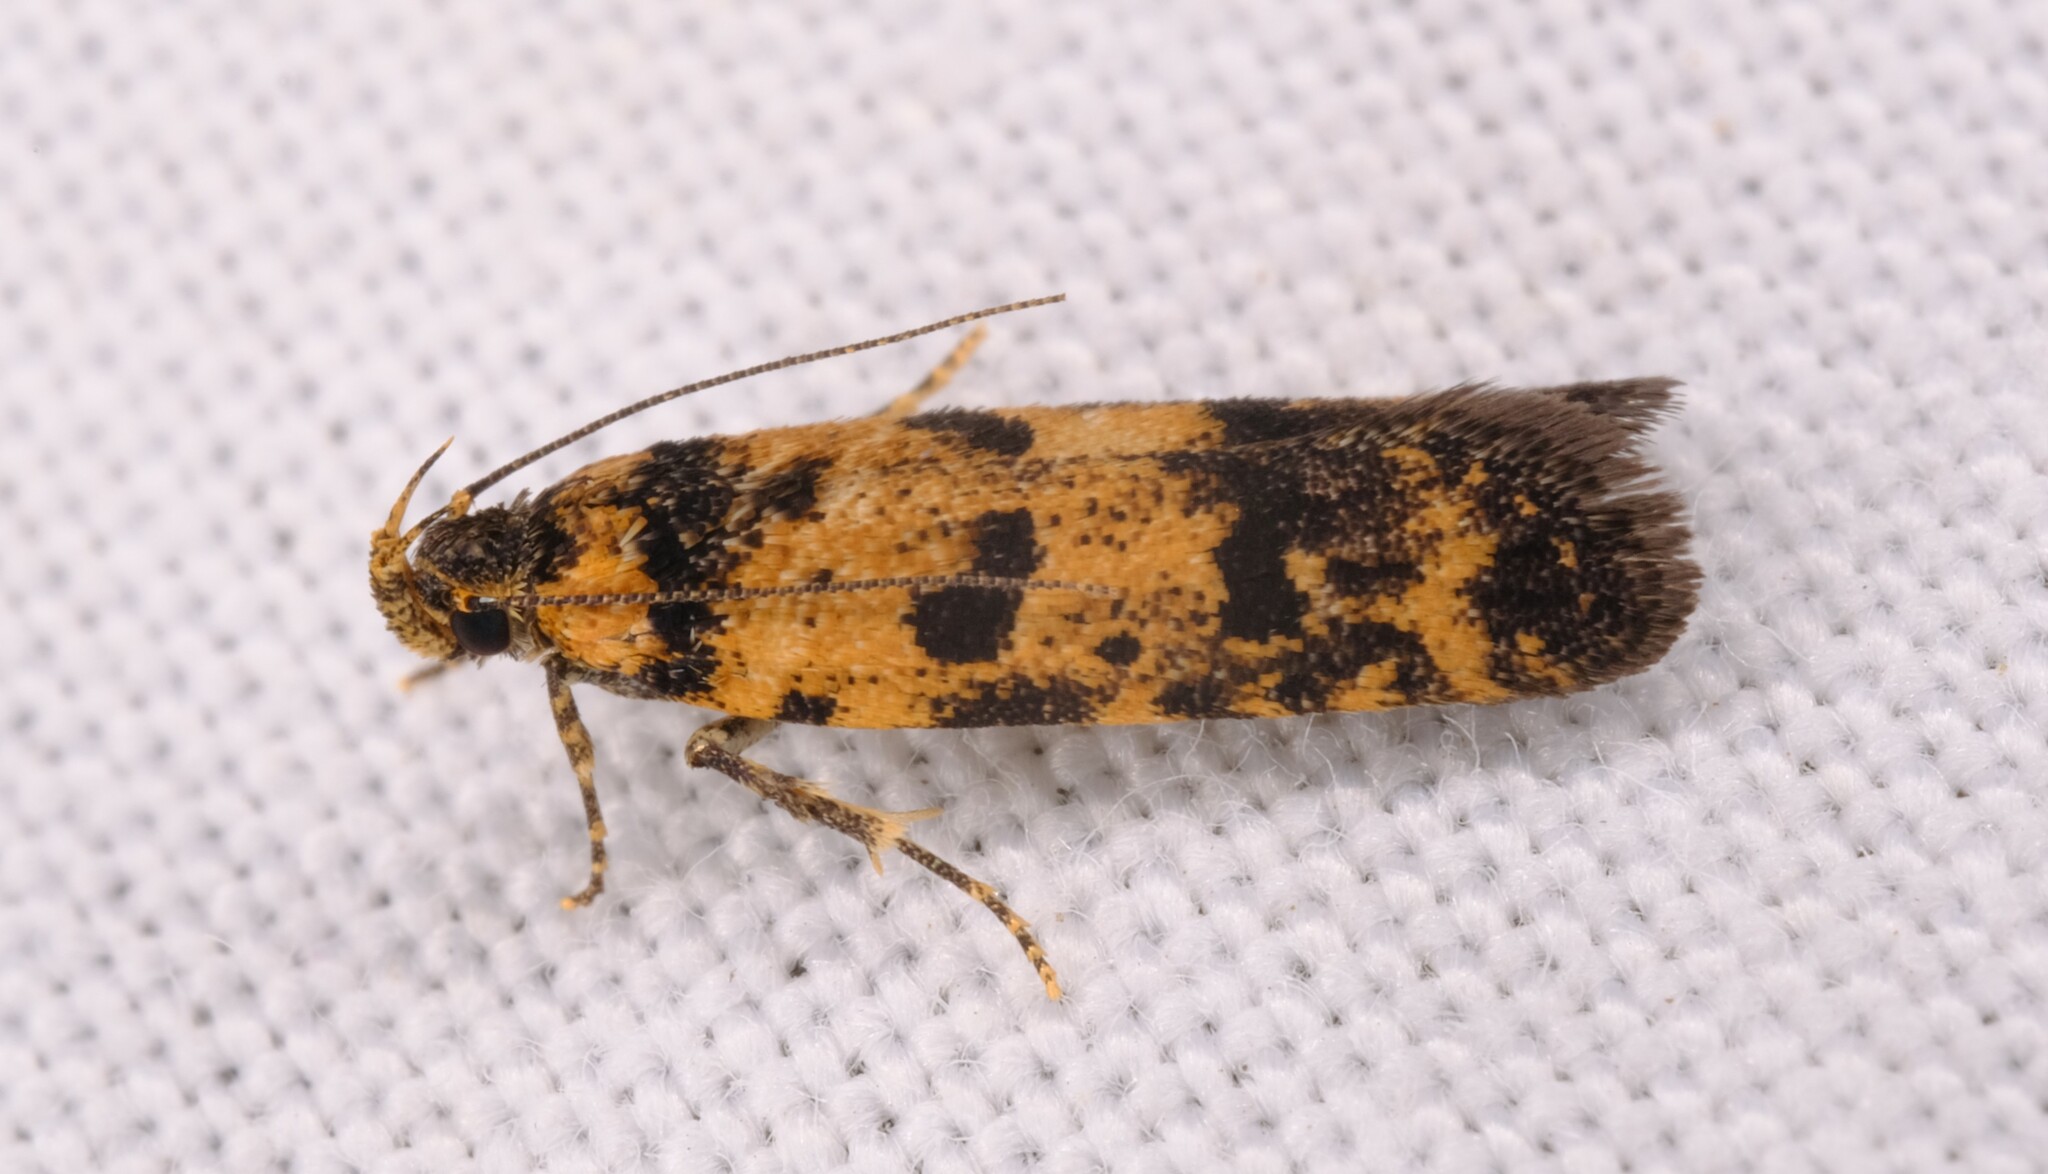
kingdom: Animalia
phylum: Arthropoda
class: Insecta
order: Lepidoptera
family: Gelechiidae
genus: Ardozyga
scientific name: Ardozyga thermochroa
